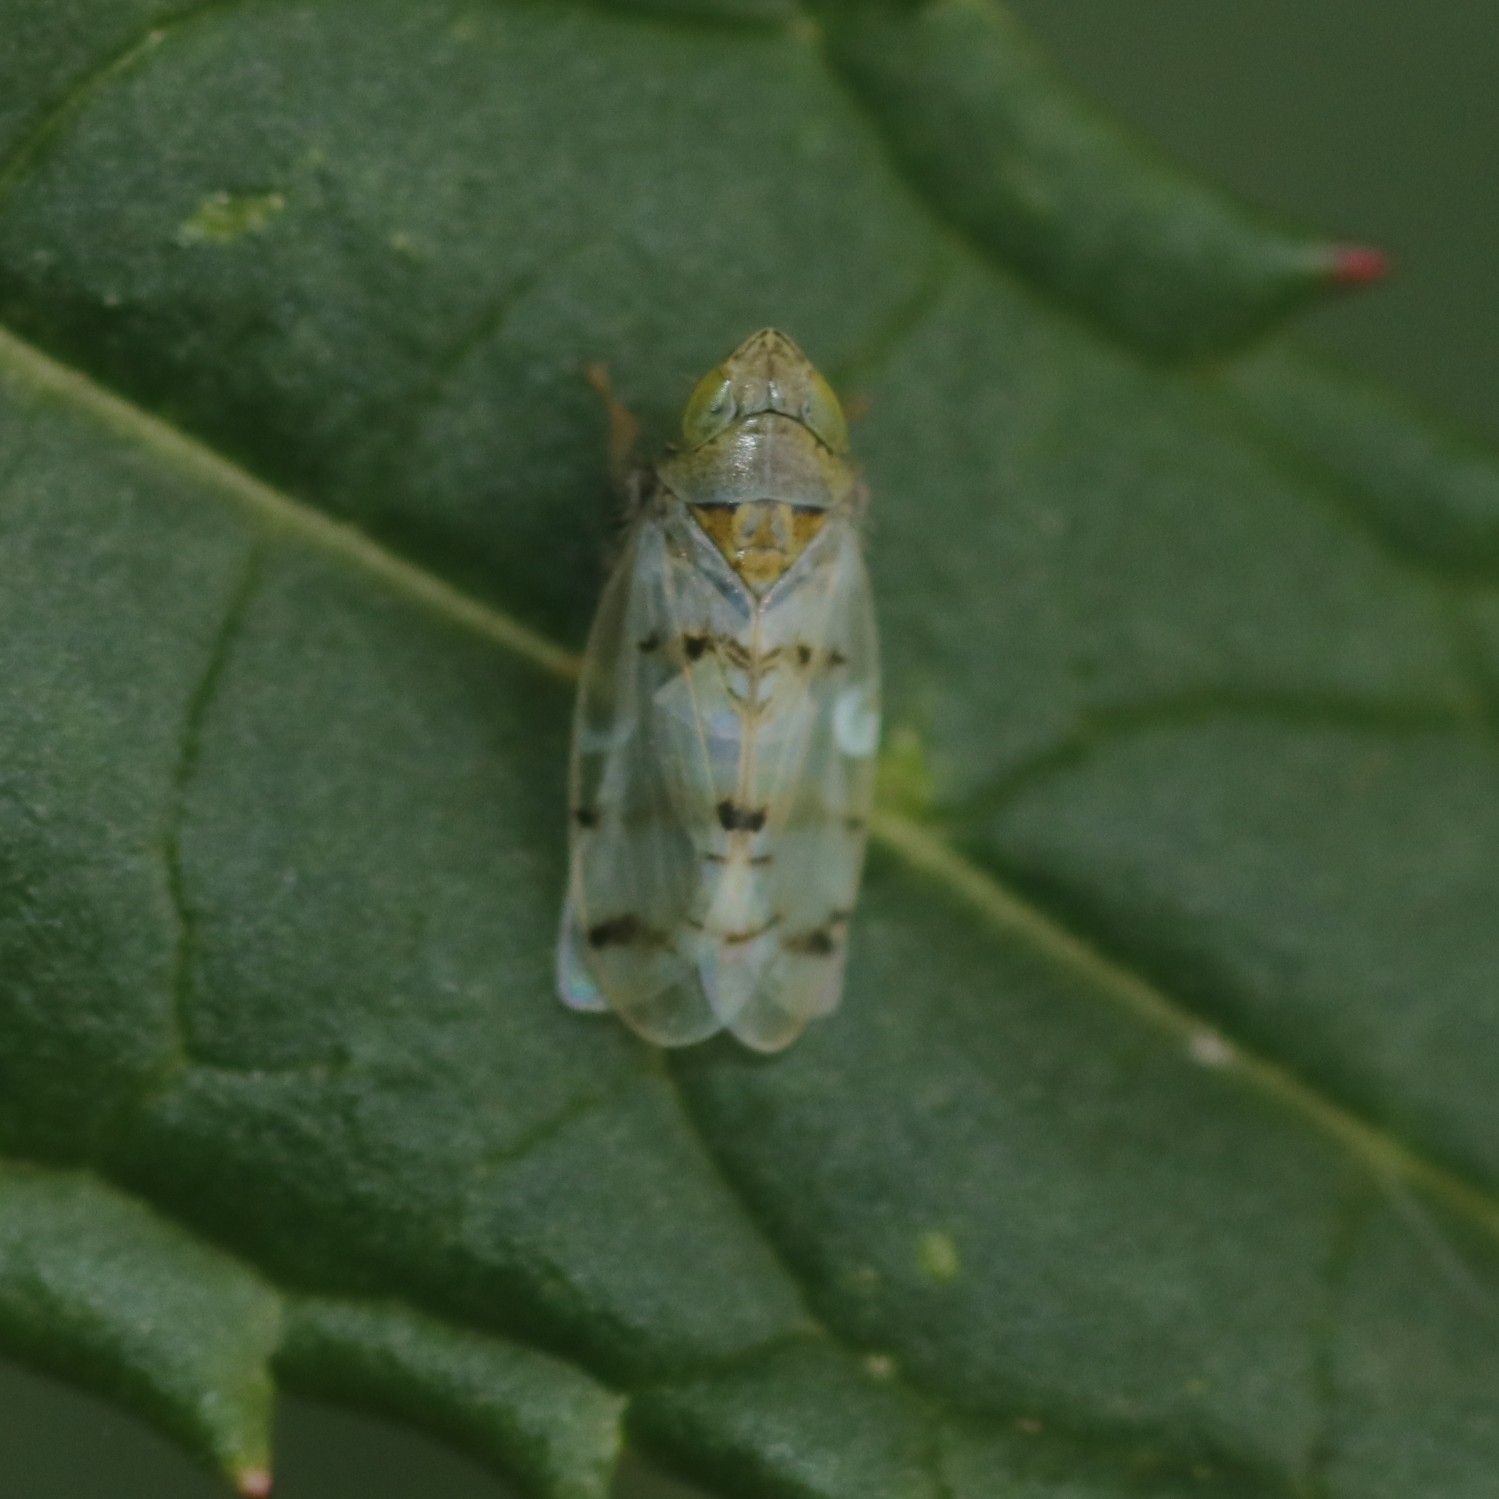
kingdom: Animalia
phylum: Arthropoda
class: Insecta
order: Hemiptera
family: Cicadellidae
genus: Japananus
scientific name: Japananus hyalinus
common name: The japanese maple leafhopper
